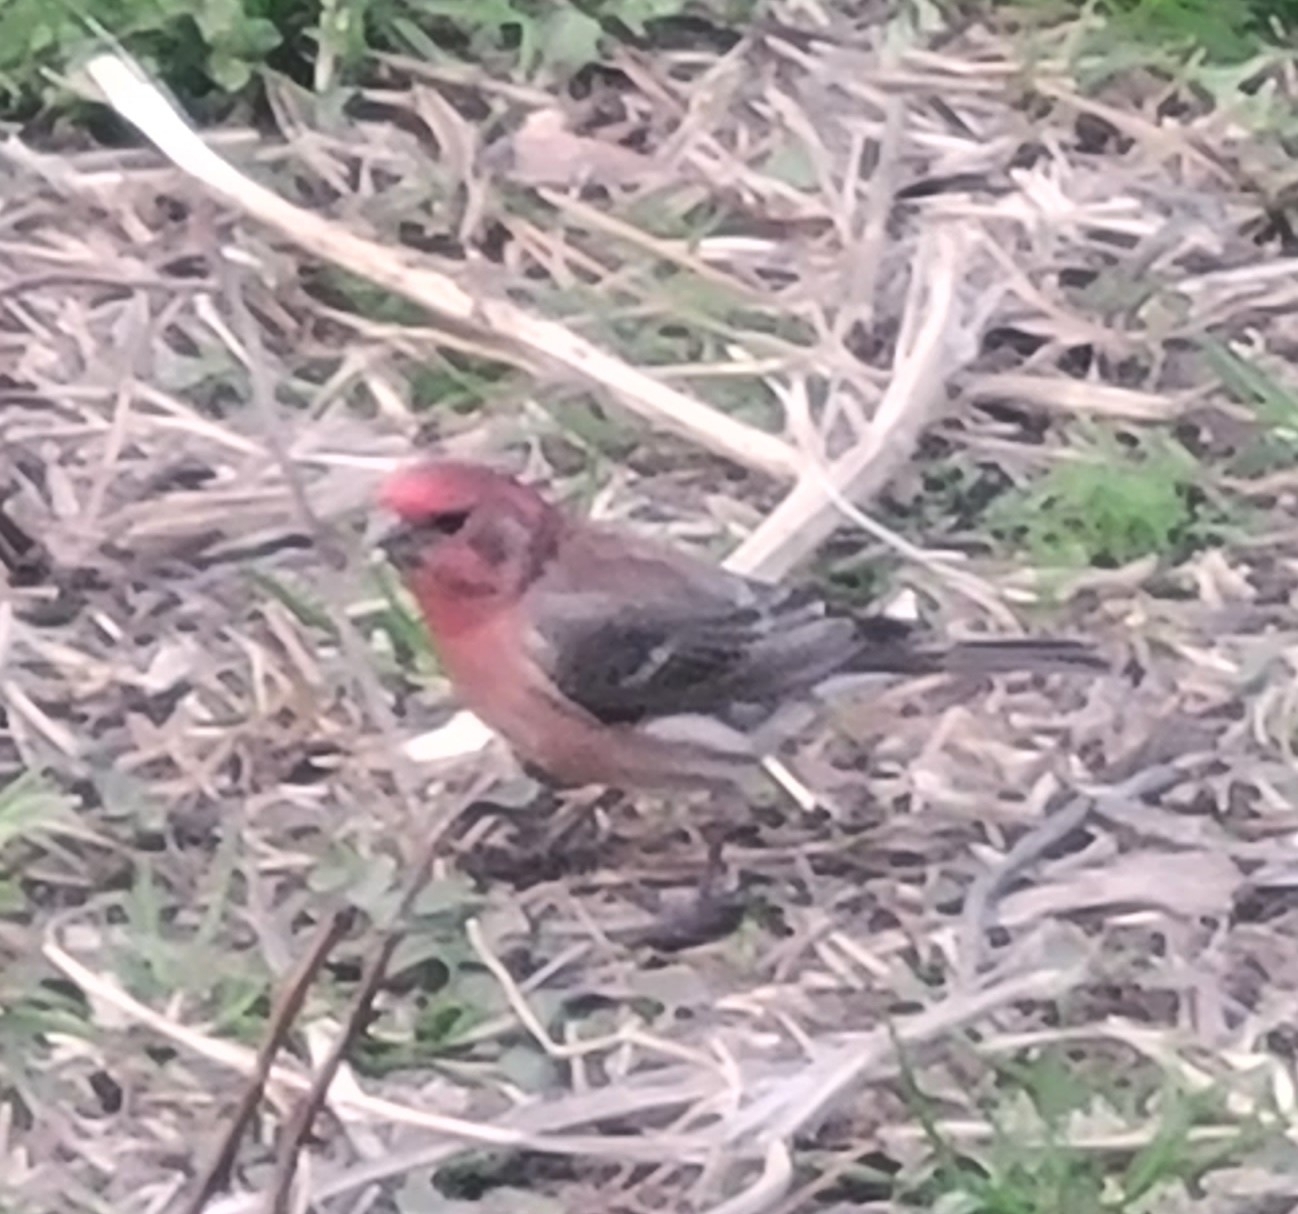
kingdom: Animalia
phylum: Chordata
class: Aves
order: Passeriformes
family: Fringillidae
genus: Haemorhous
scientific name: Haemorhous mexicanus
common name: House finch
